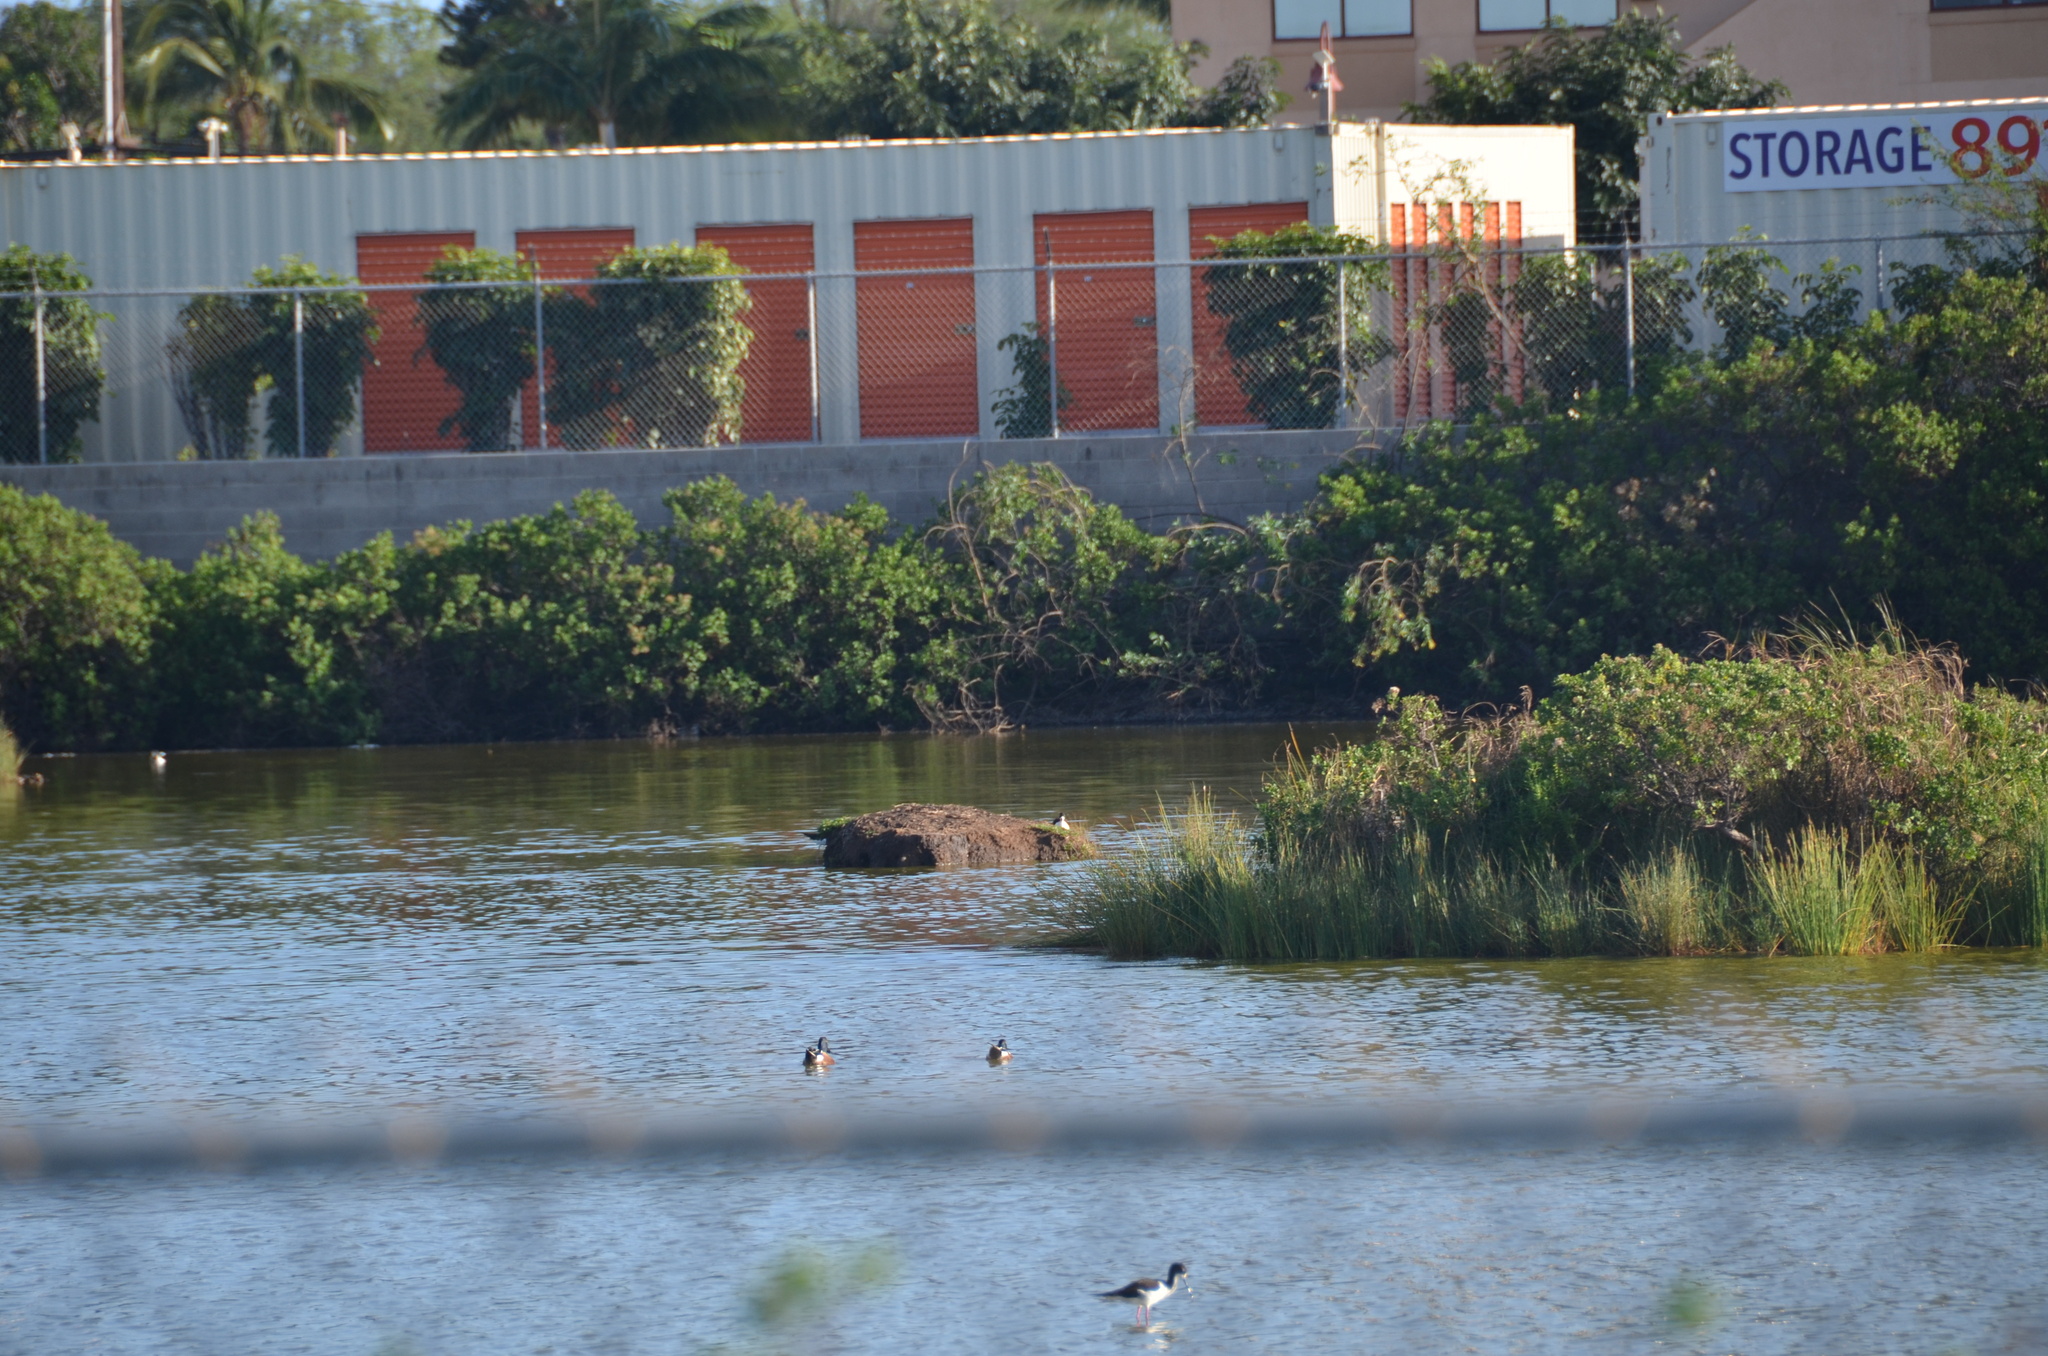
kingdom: Animalia
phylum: Chordata
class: Aves
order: Anseriformes
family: Anatidae
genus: Spatula
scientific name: Spatula clypeata
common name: Northern shoveler
